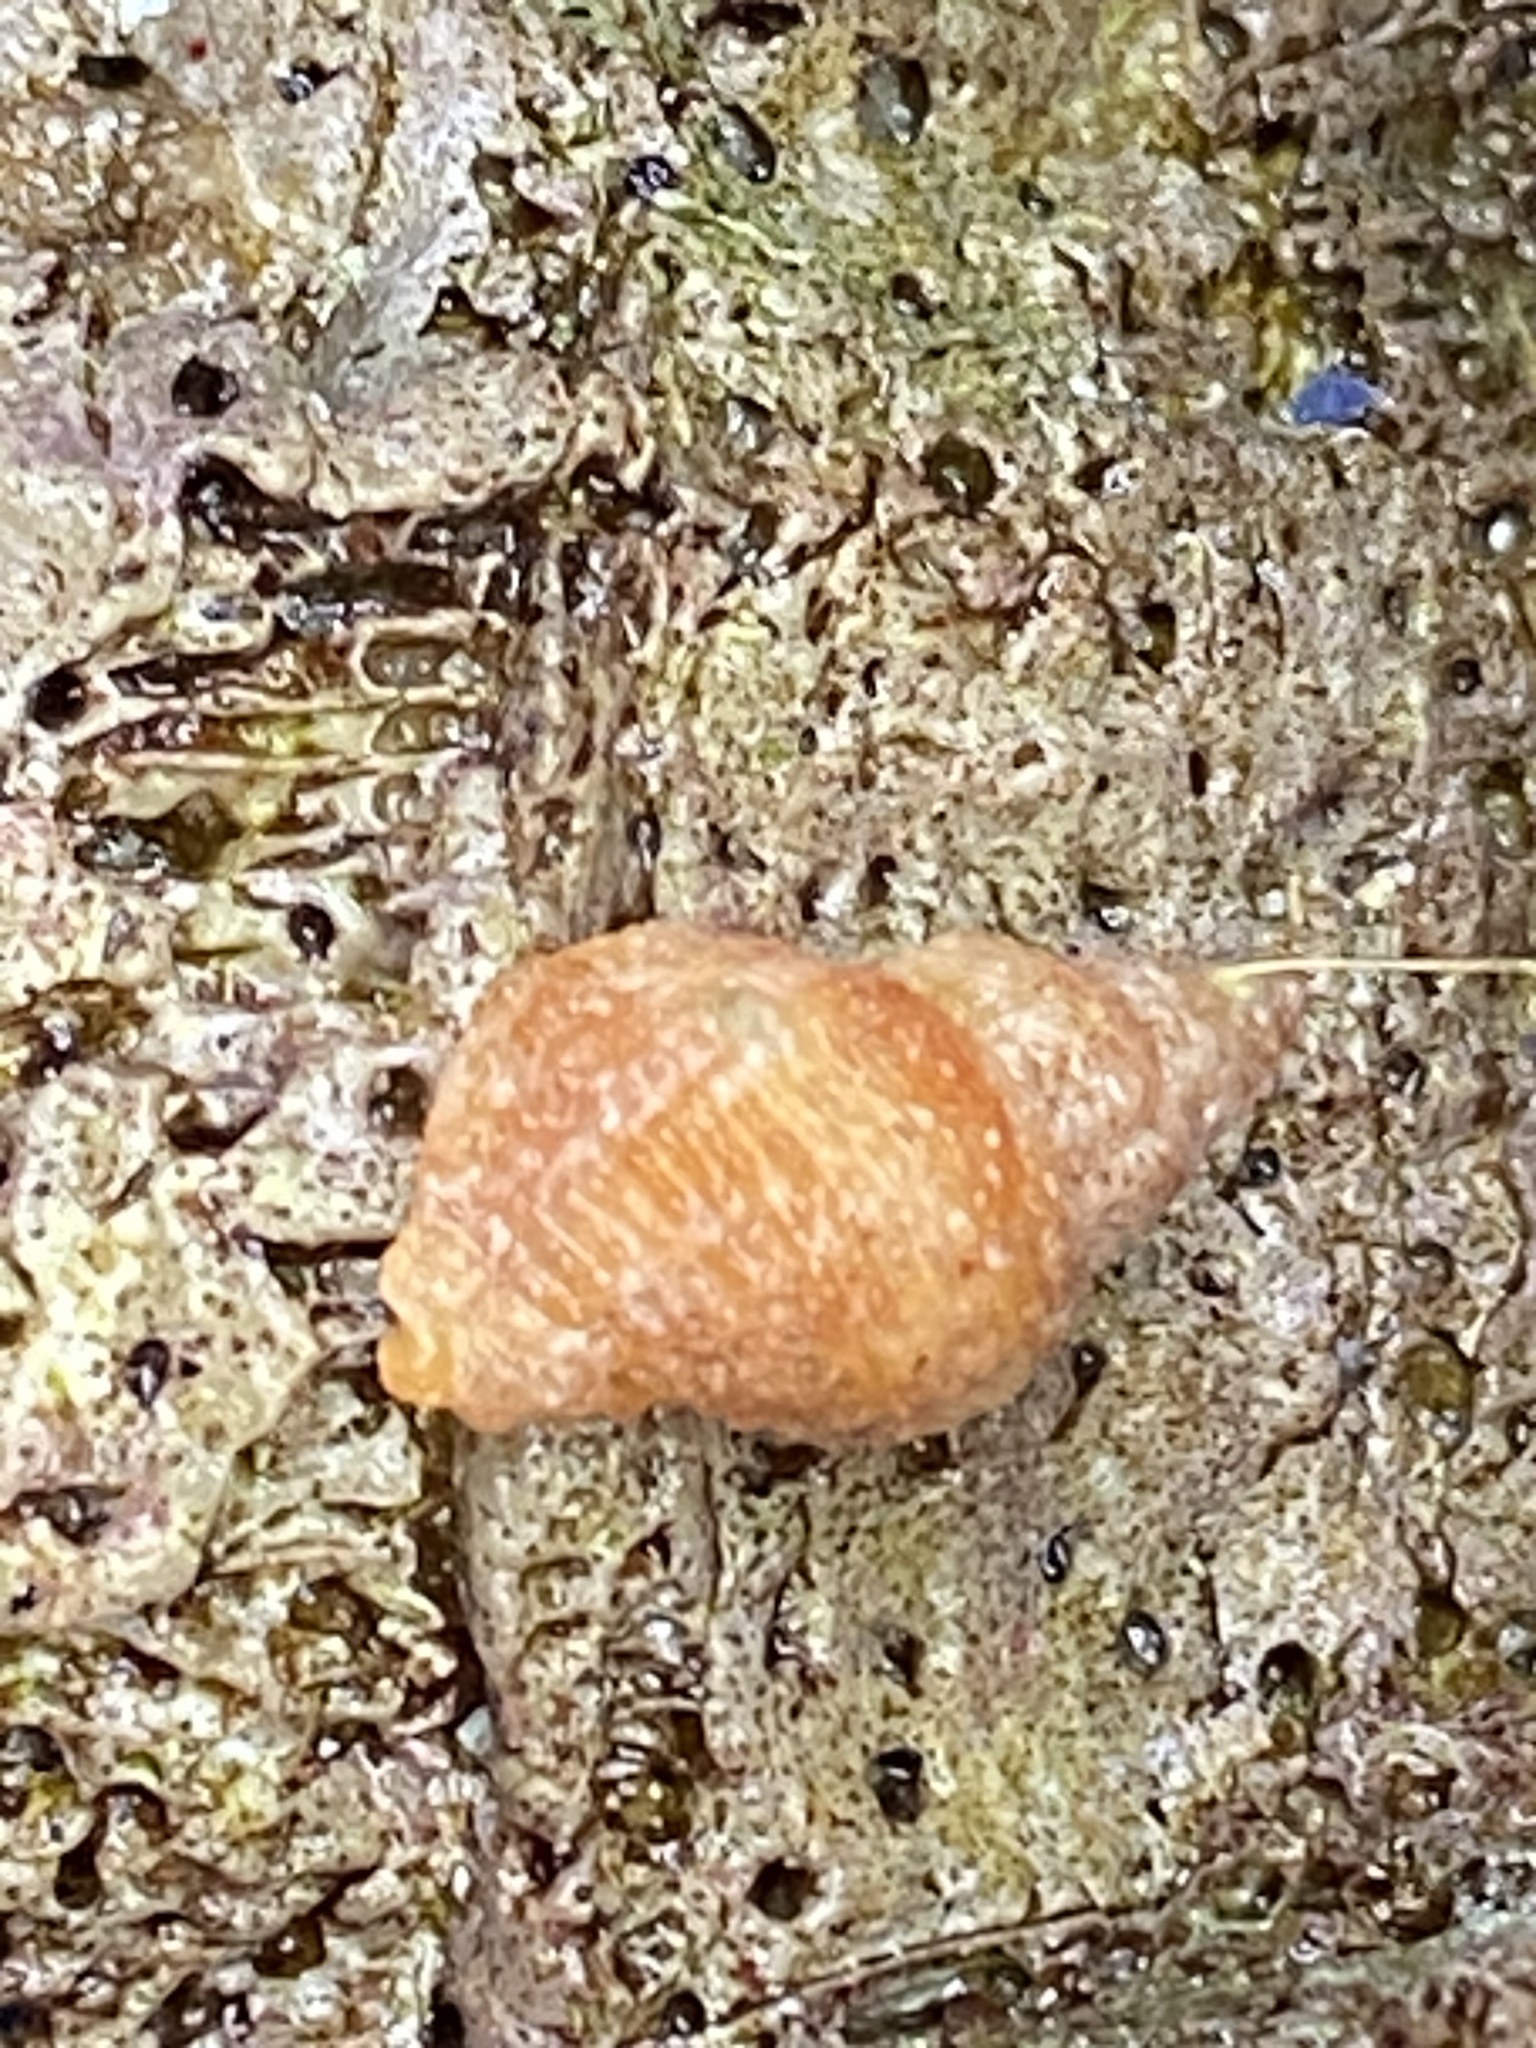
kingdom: Animalia
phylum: Mollusca
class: Gastropoda
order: Neogastropoda
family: Columbellidae
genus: Amphissa
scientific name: Amphissa columbiana
